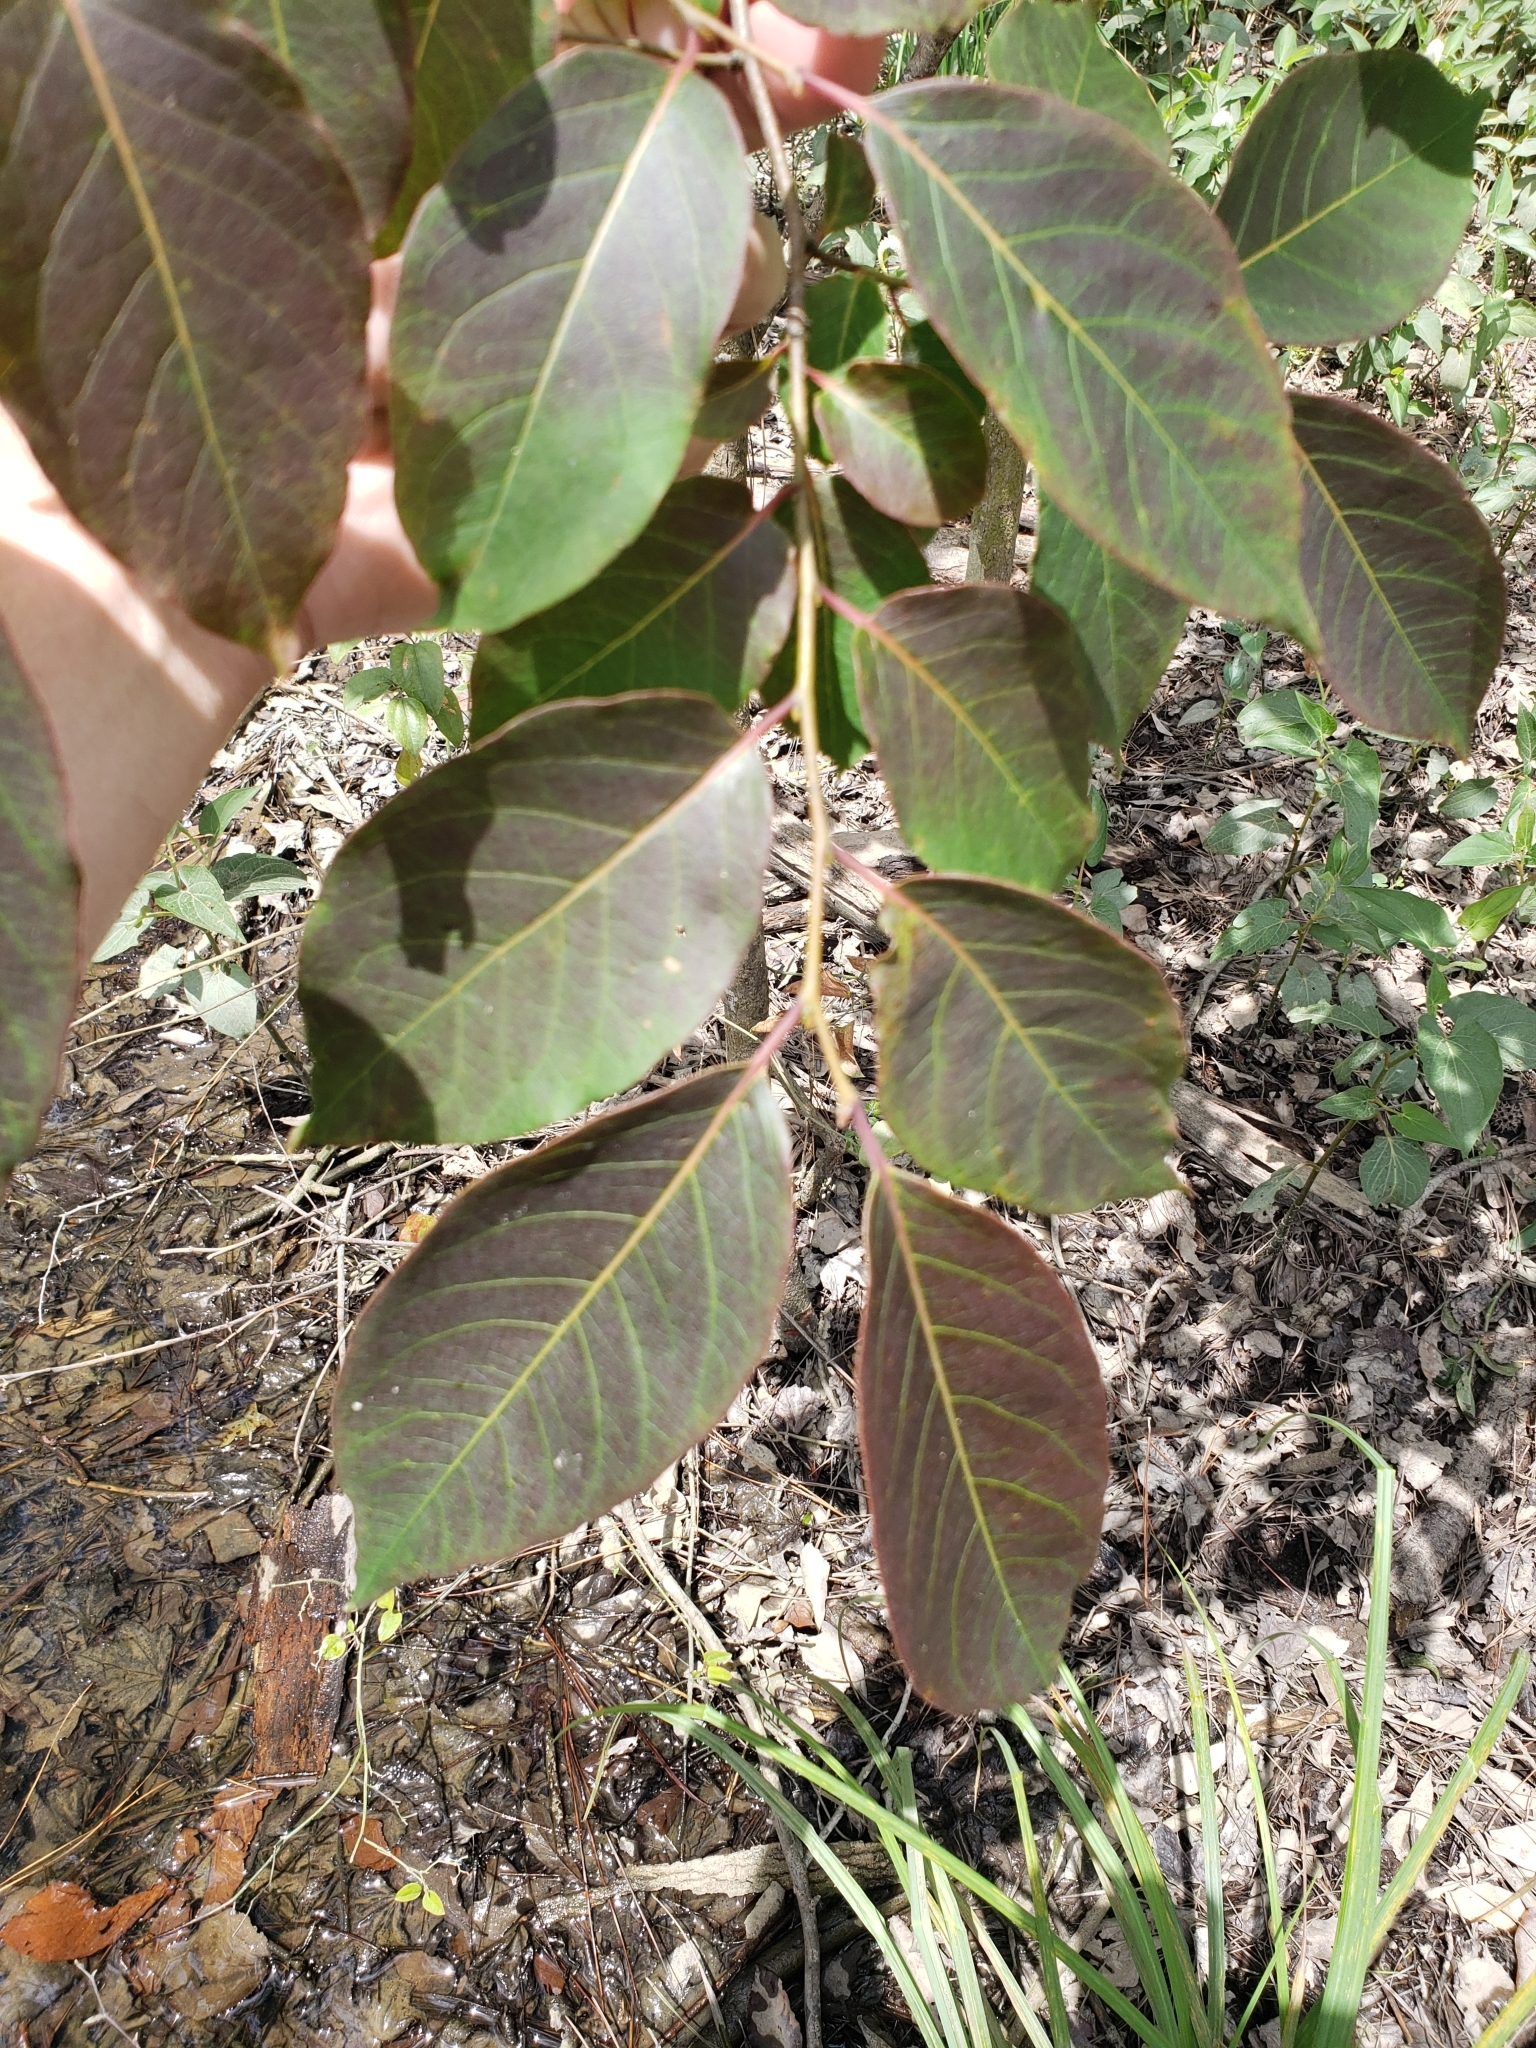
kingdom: Plantae
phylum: Tracheophyta
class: Magnoliopsida
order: Ericales
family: Ebenaceae
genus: Diospyros
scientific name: Diospyros virginiana
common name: Persimmon
